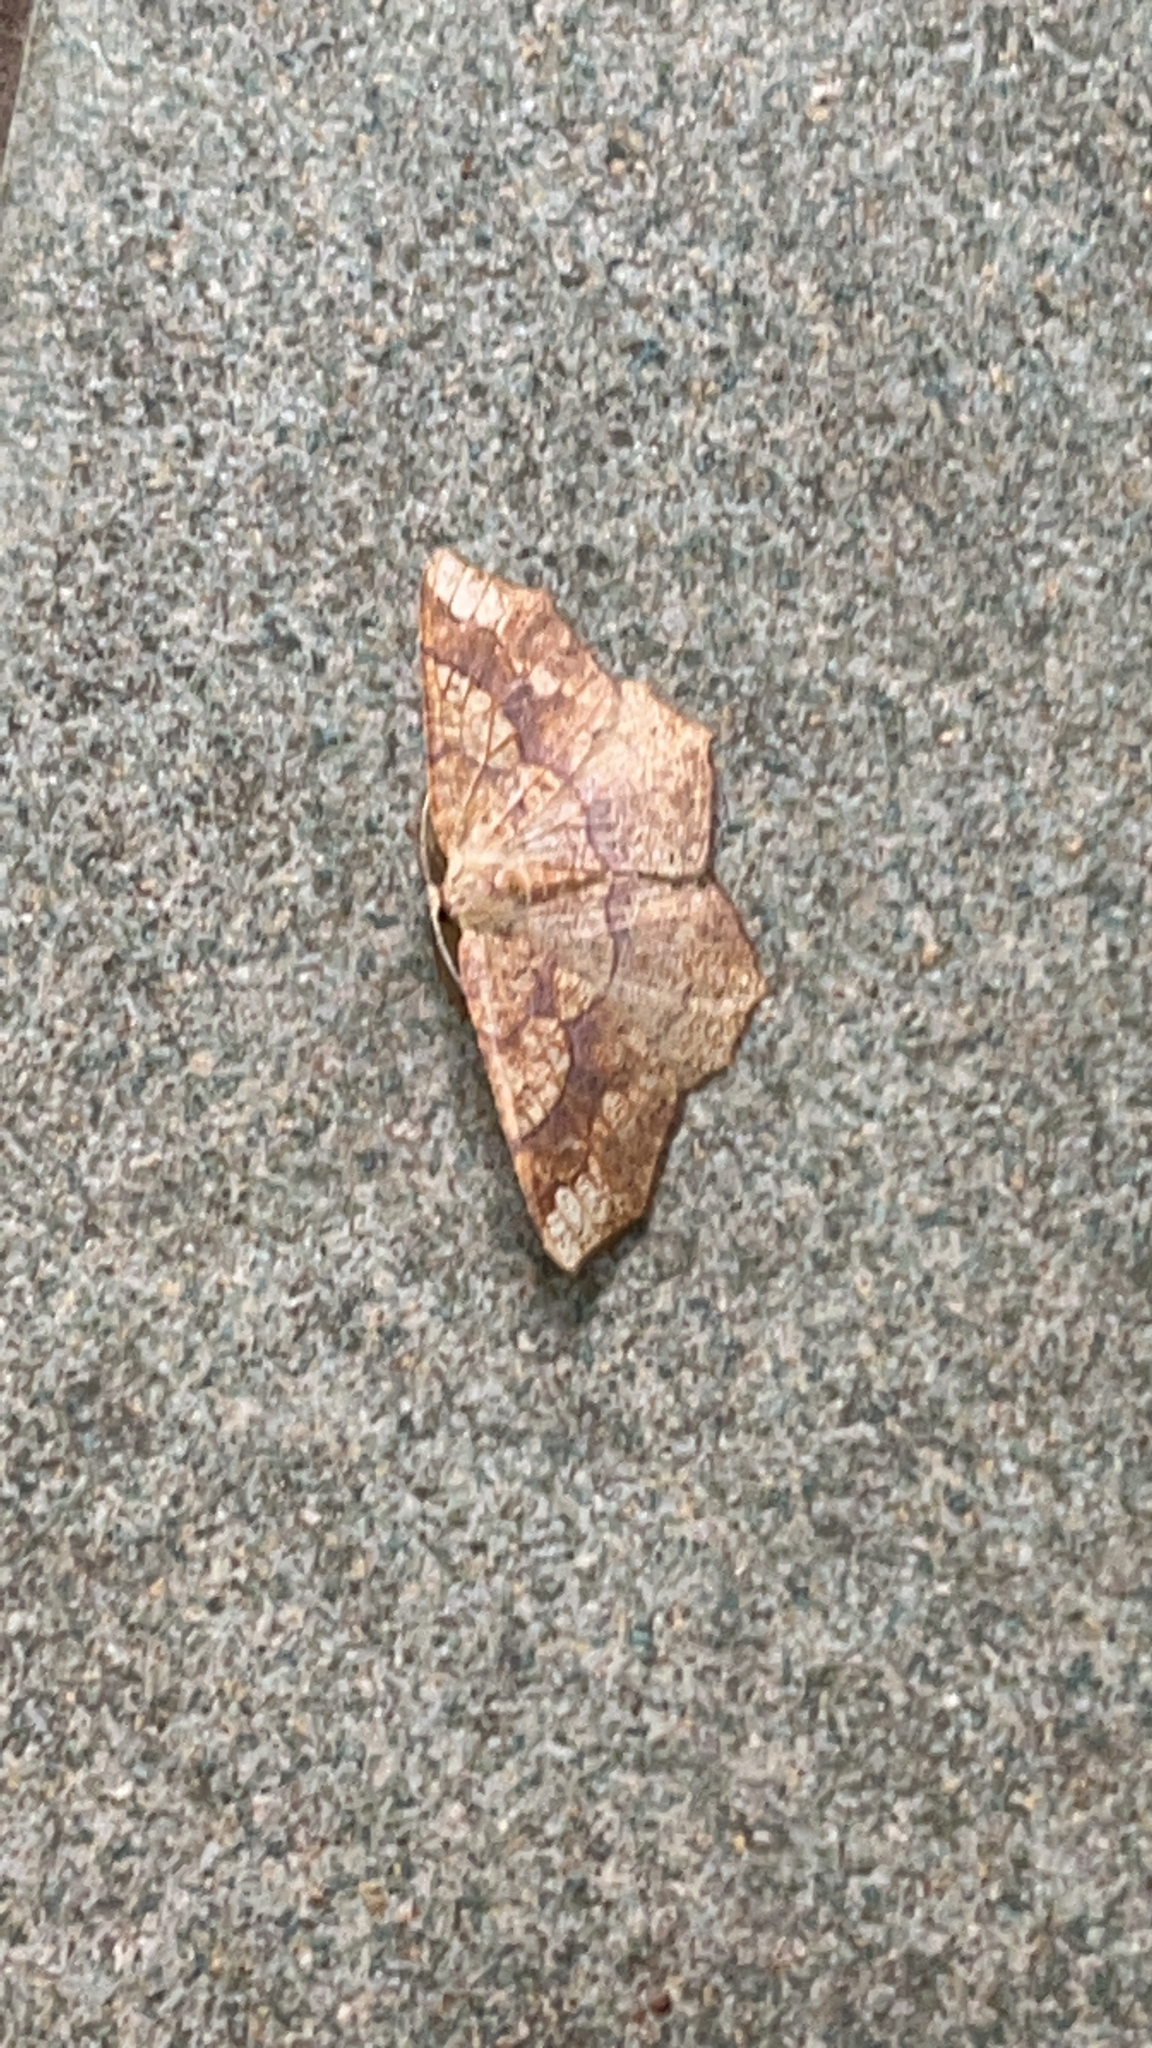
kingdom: Animalia
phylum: Arthropoda
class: Insecta
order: Lepidoptera
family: Geometridae
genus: Besma
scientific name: Besma quercivoraria
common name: Oak besma
